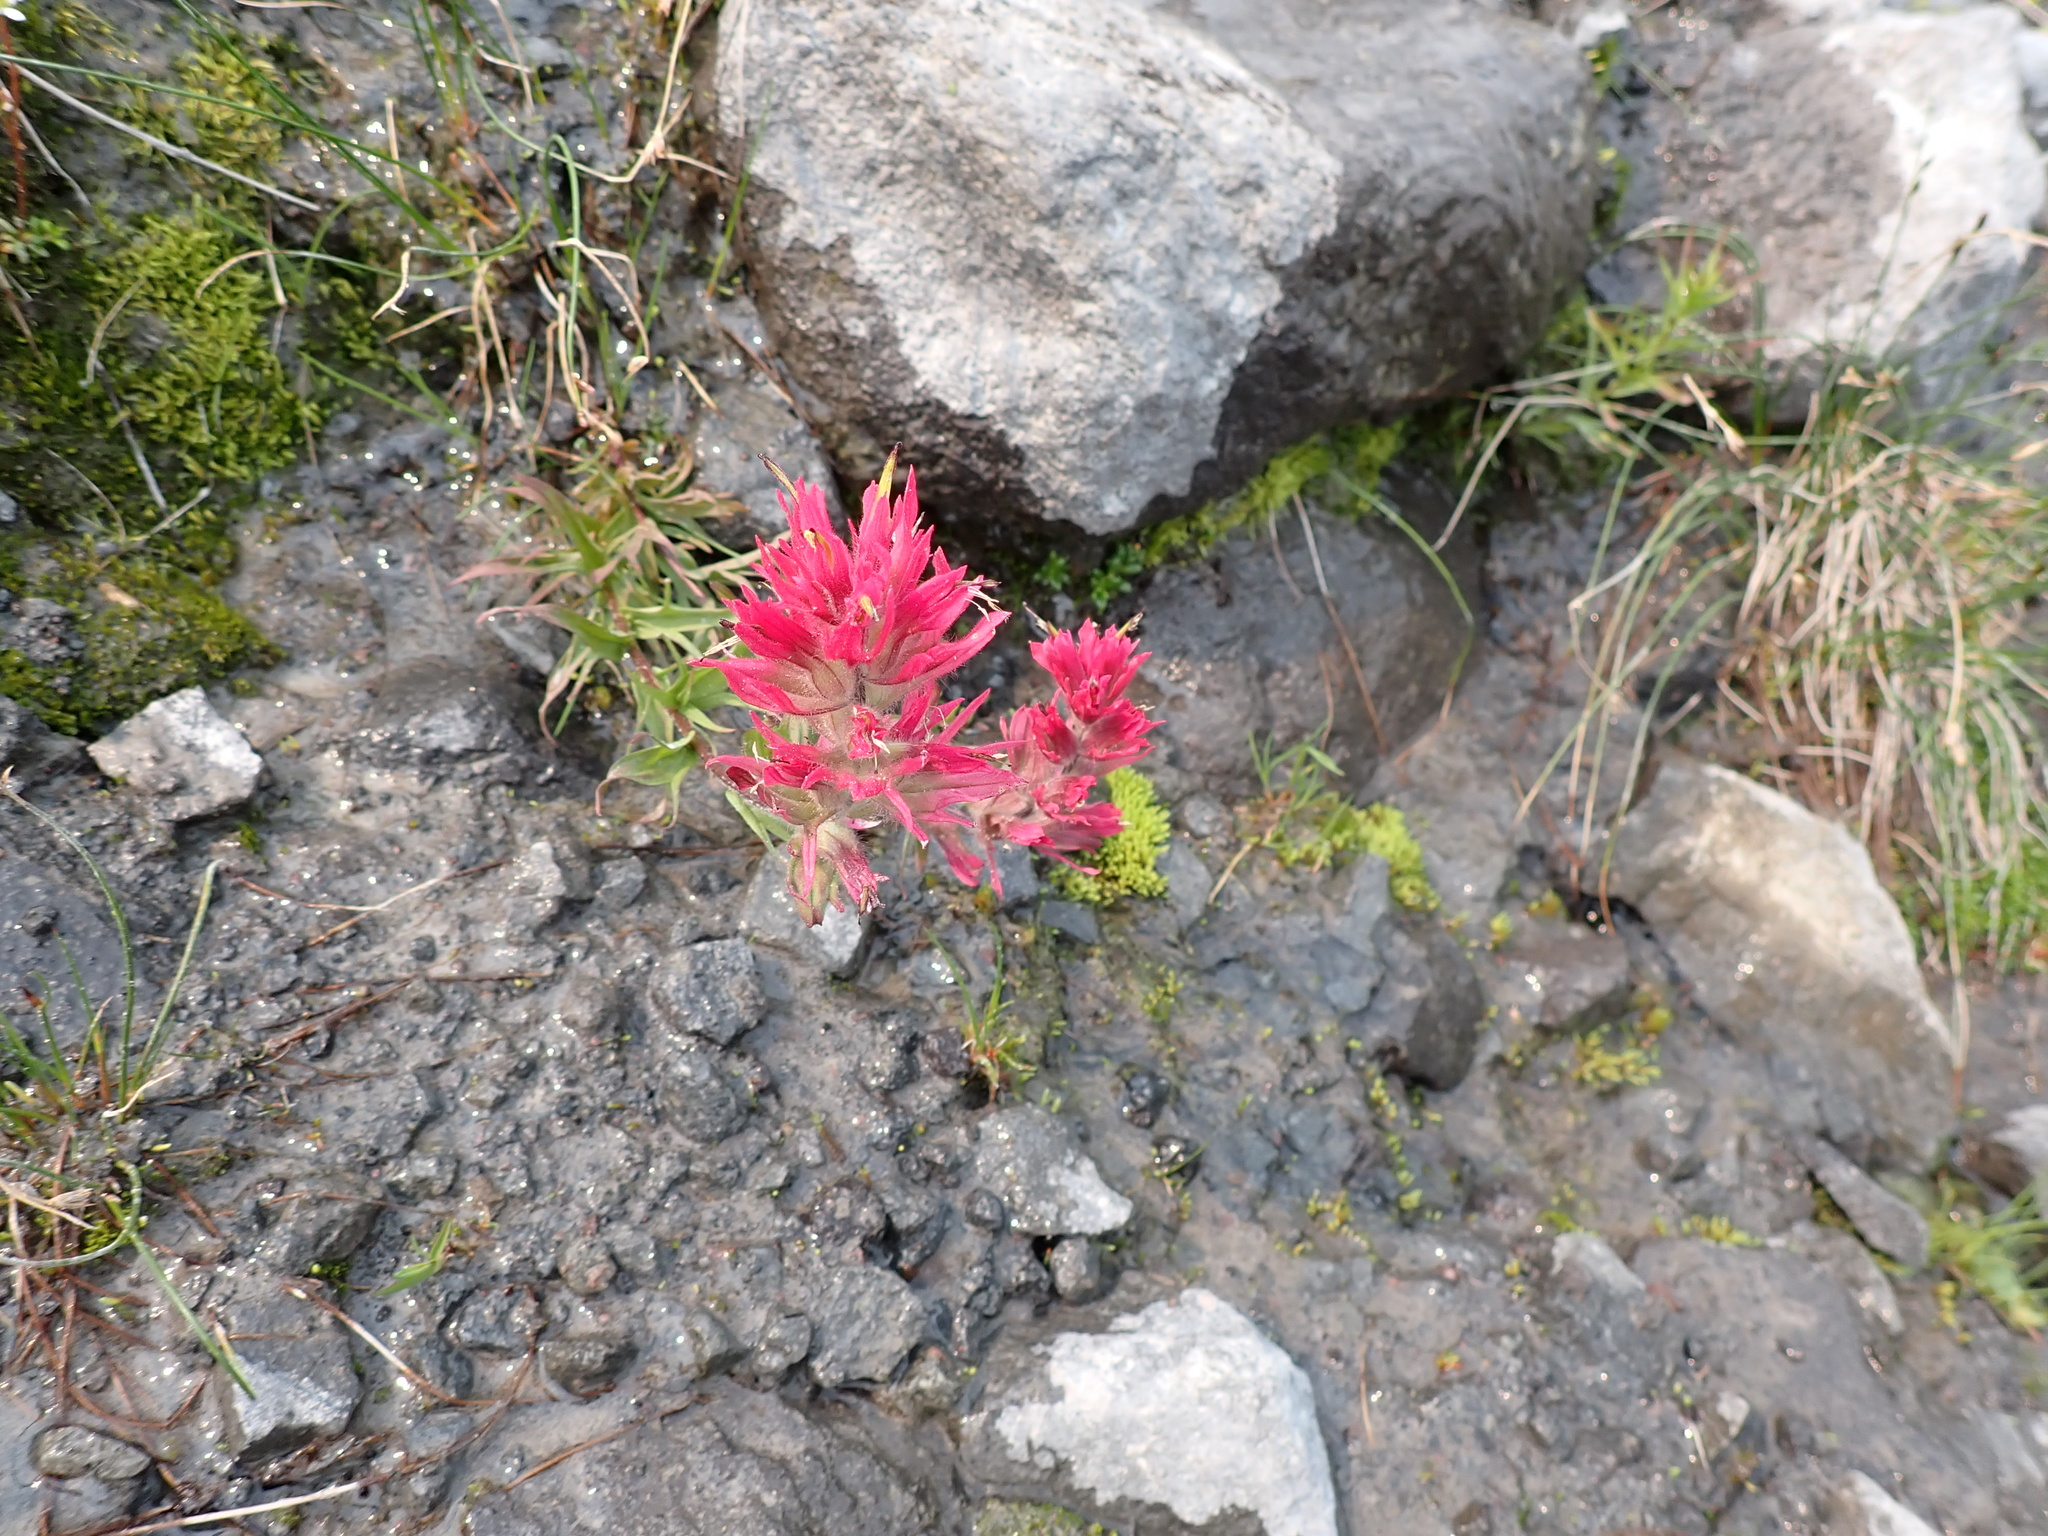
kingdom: Plantae
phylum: Tracheophyta
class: Magnoliopsida
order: Lamiales
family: Orobanchaceae
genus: Castilleja
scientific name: Castilleja parviflora
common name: Mountain paintbrush
